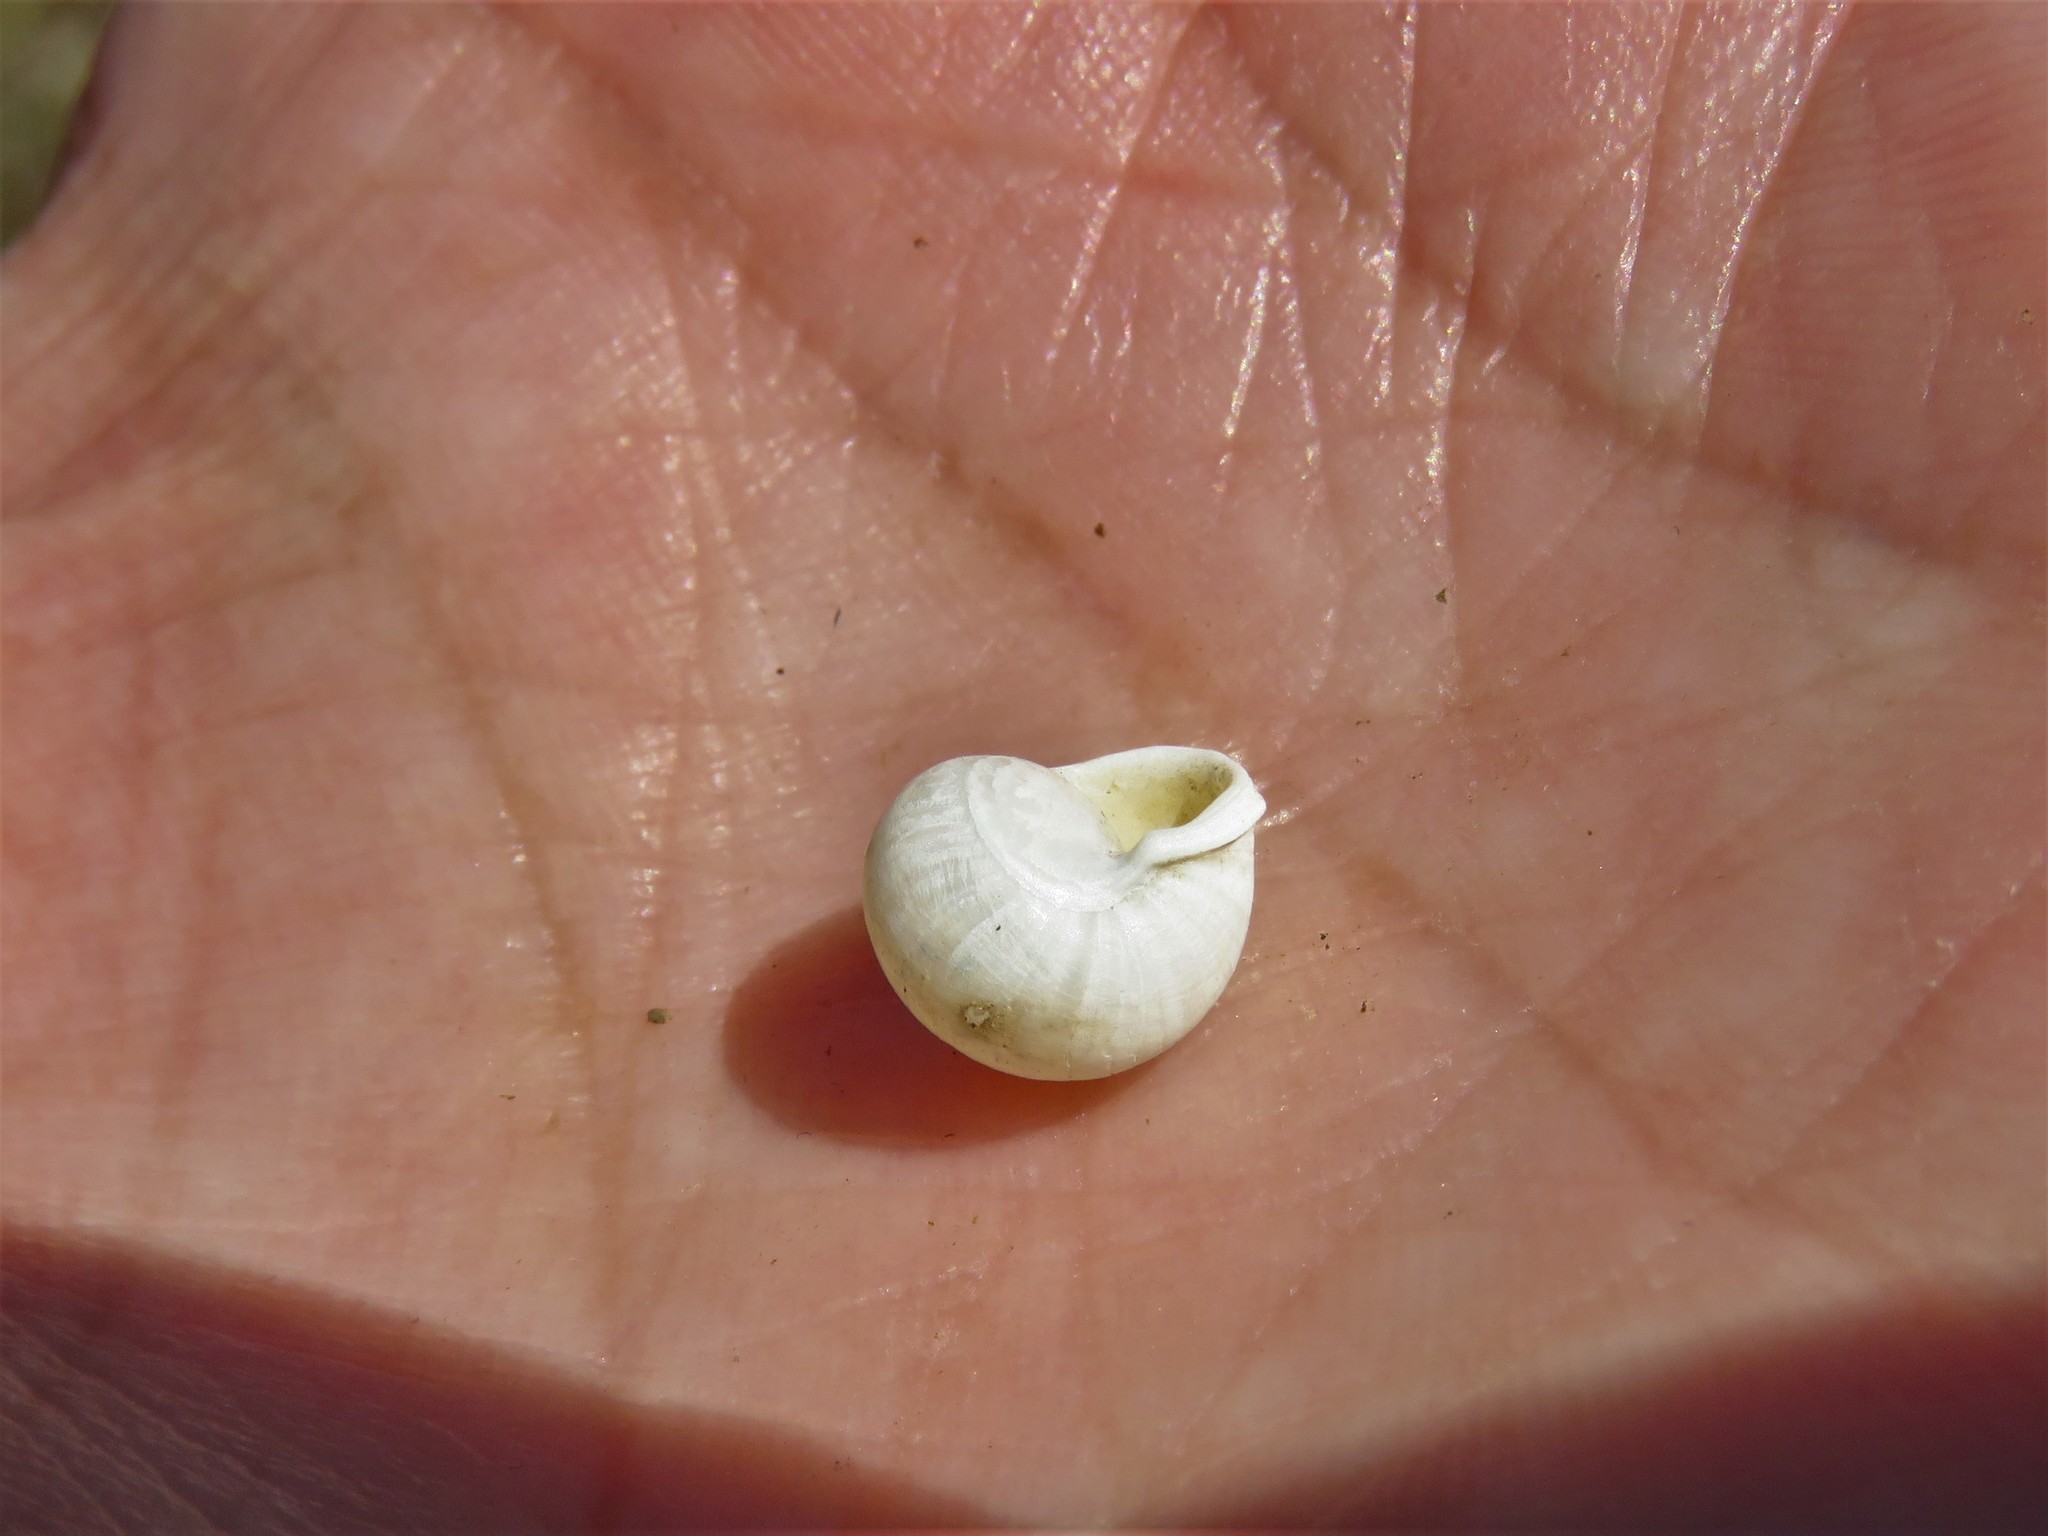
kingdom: Animalia
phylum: Mollusca
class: Gastropoda
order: Cycloneritida
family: Helicinidae
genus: Helicina
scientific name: Helicina orbiculata
